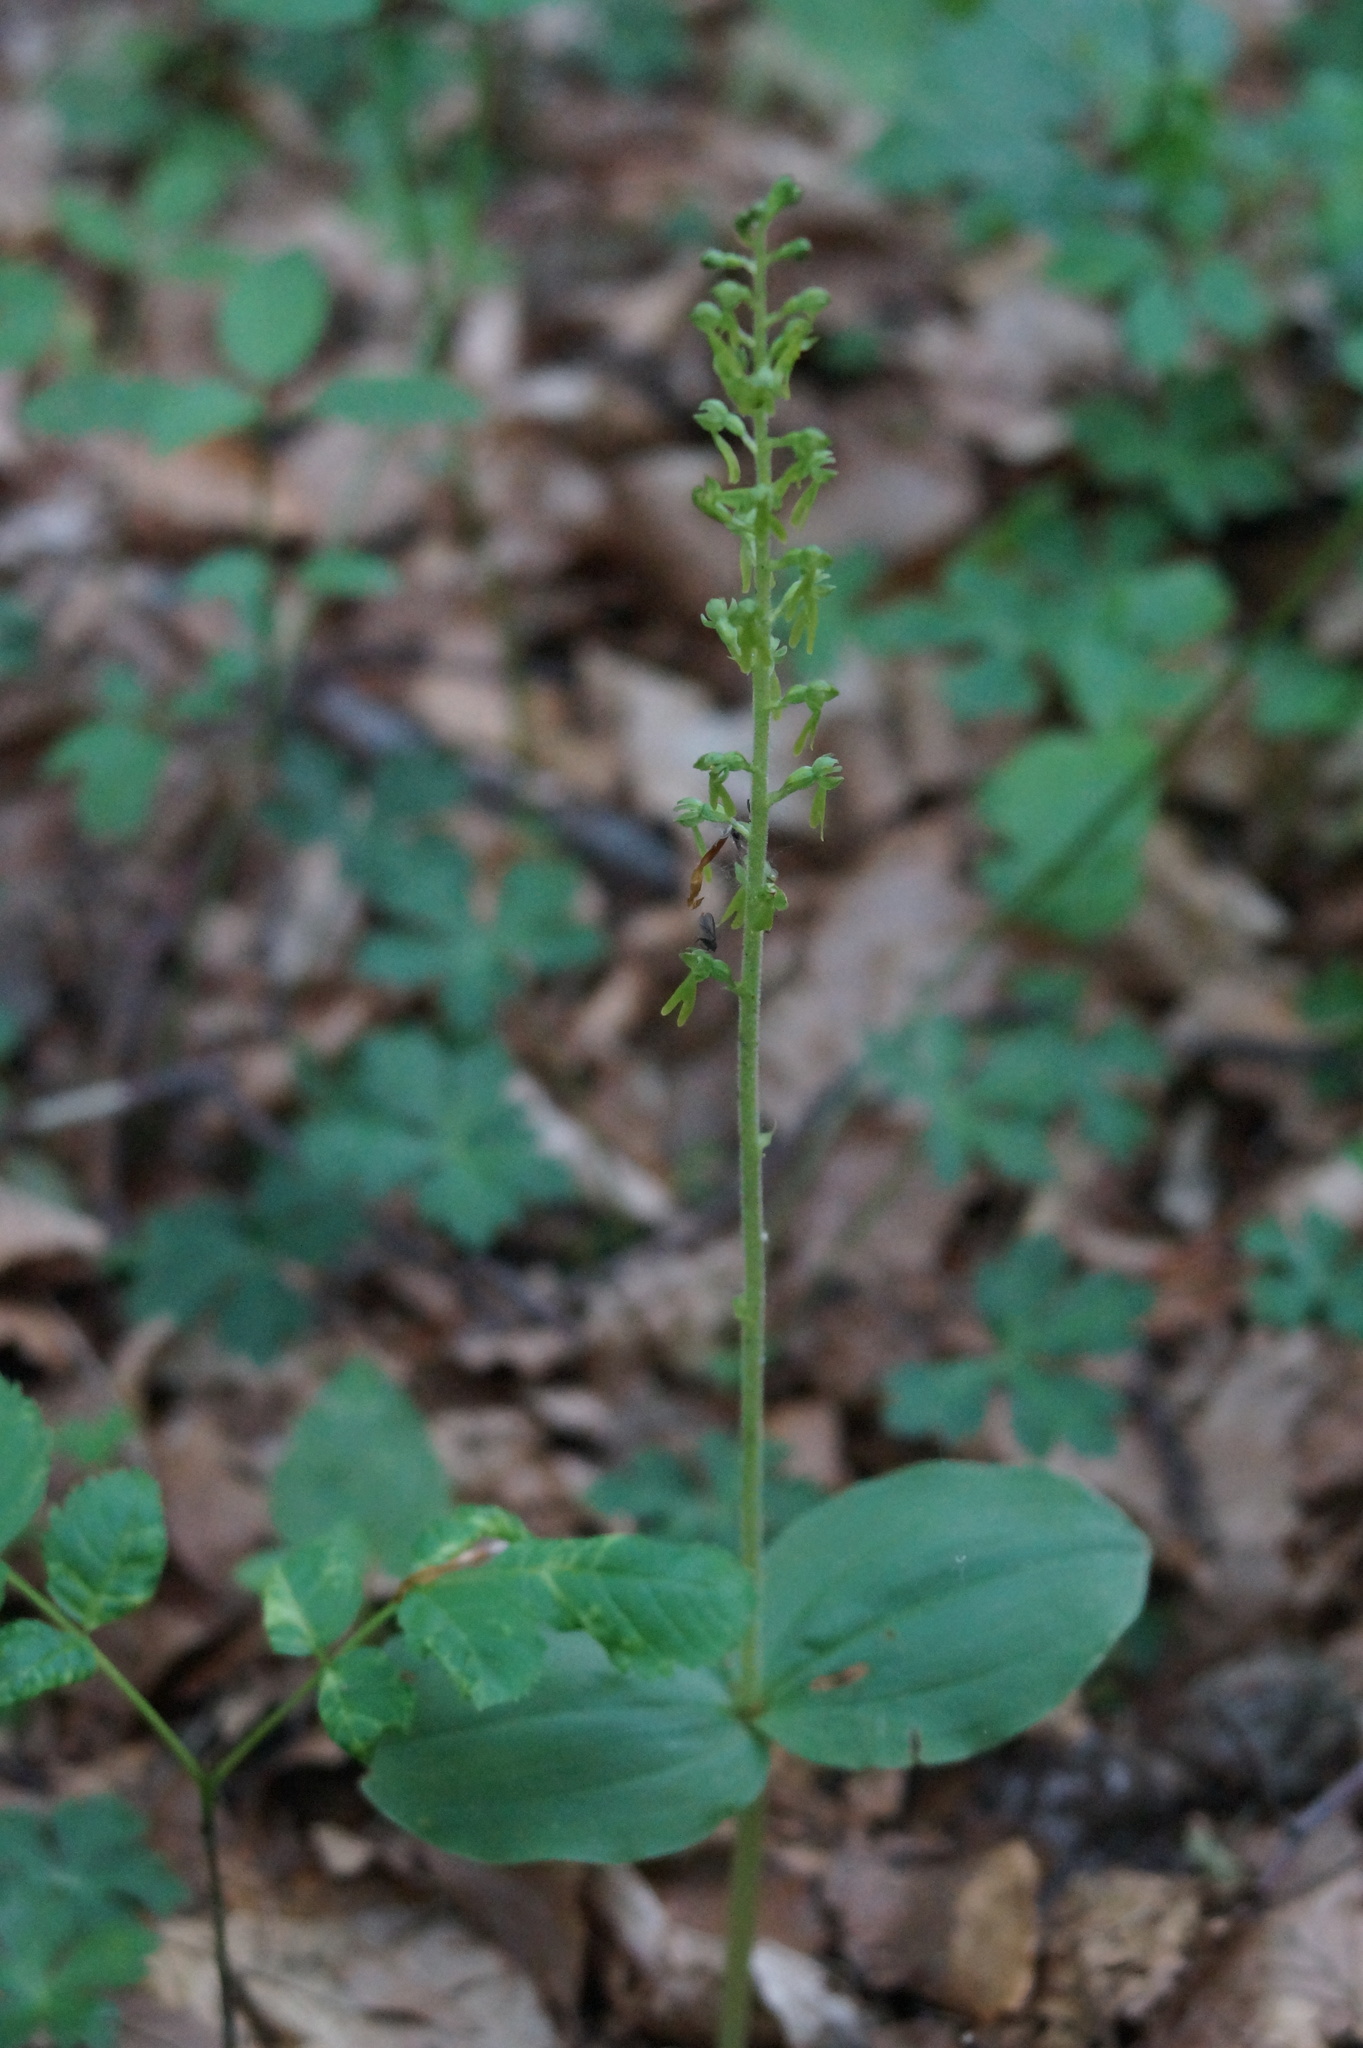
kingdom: Plantae
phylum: Tracheophyta
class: Liliopsida
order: Asparagales
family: Orchidaceae
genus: Neottia
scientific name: Neottia ovata
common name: Common twayblade
